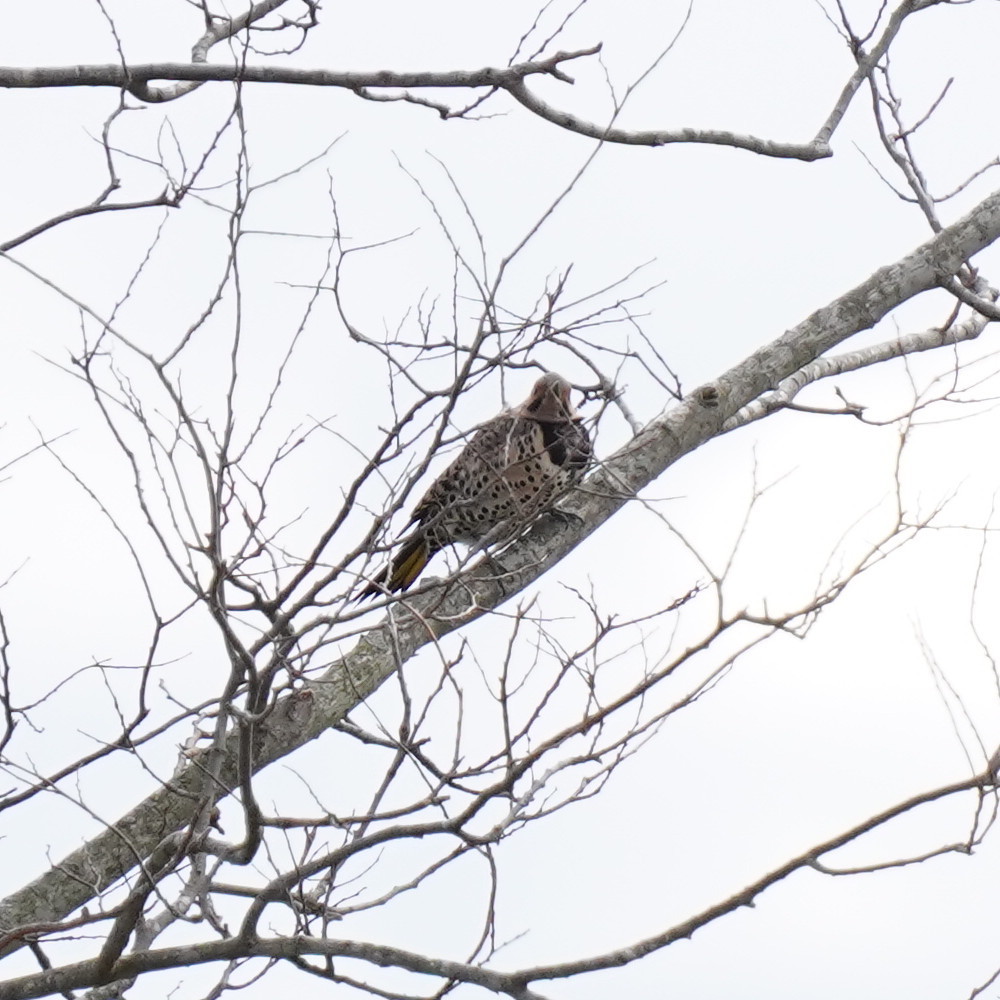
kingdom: Animalia
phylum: Chordata
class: Aves
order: Piciformes
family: Picidae
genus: Colaptes
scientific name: Colaptes auratus
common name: Northern flicker
